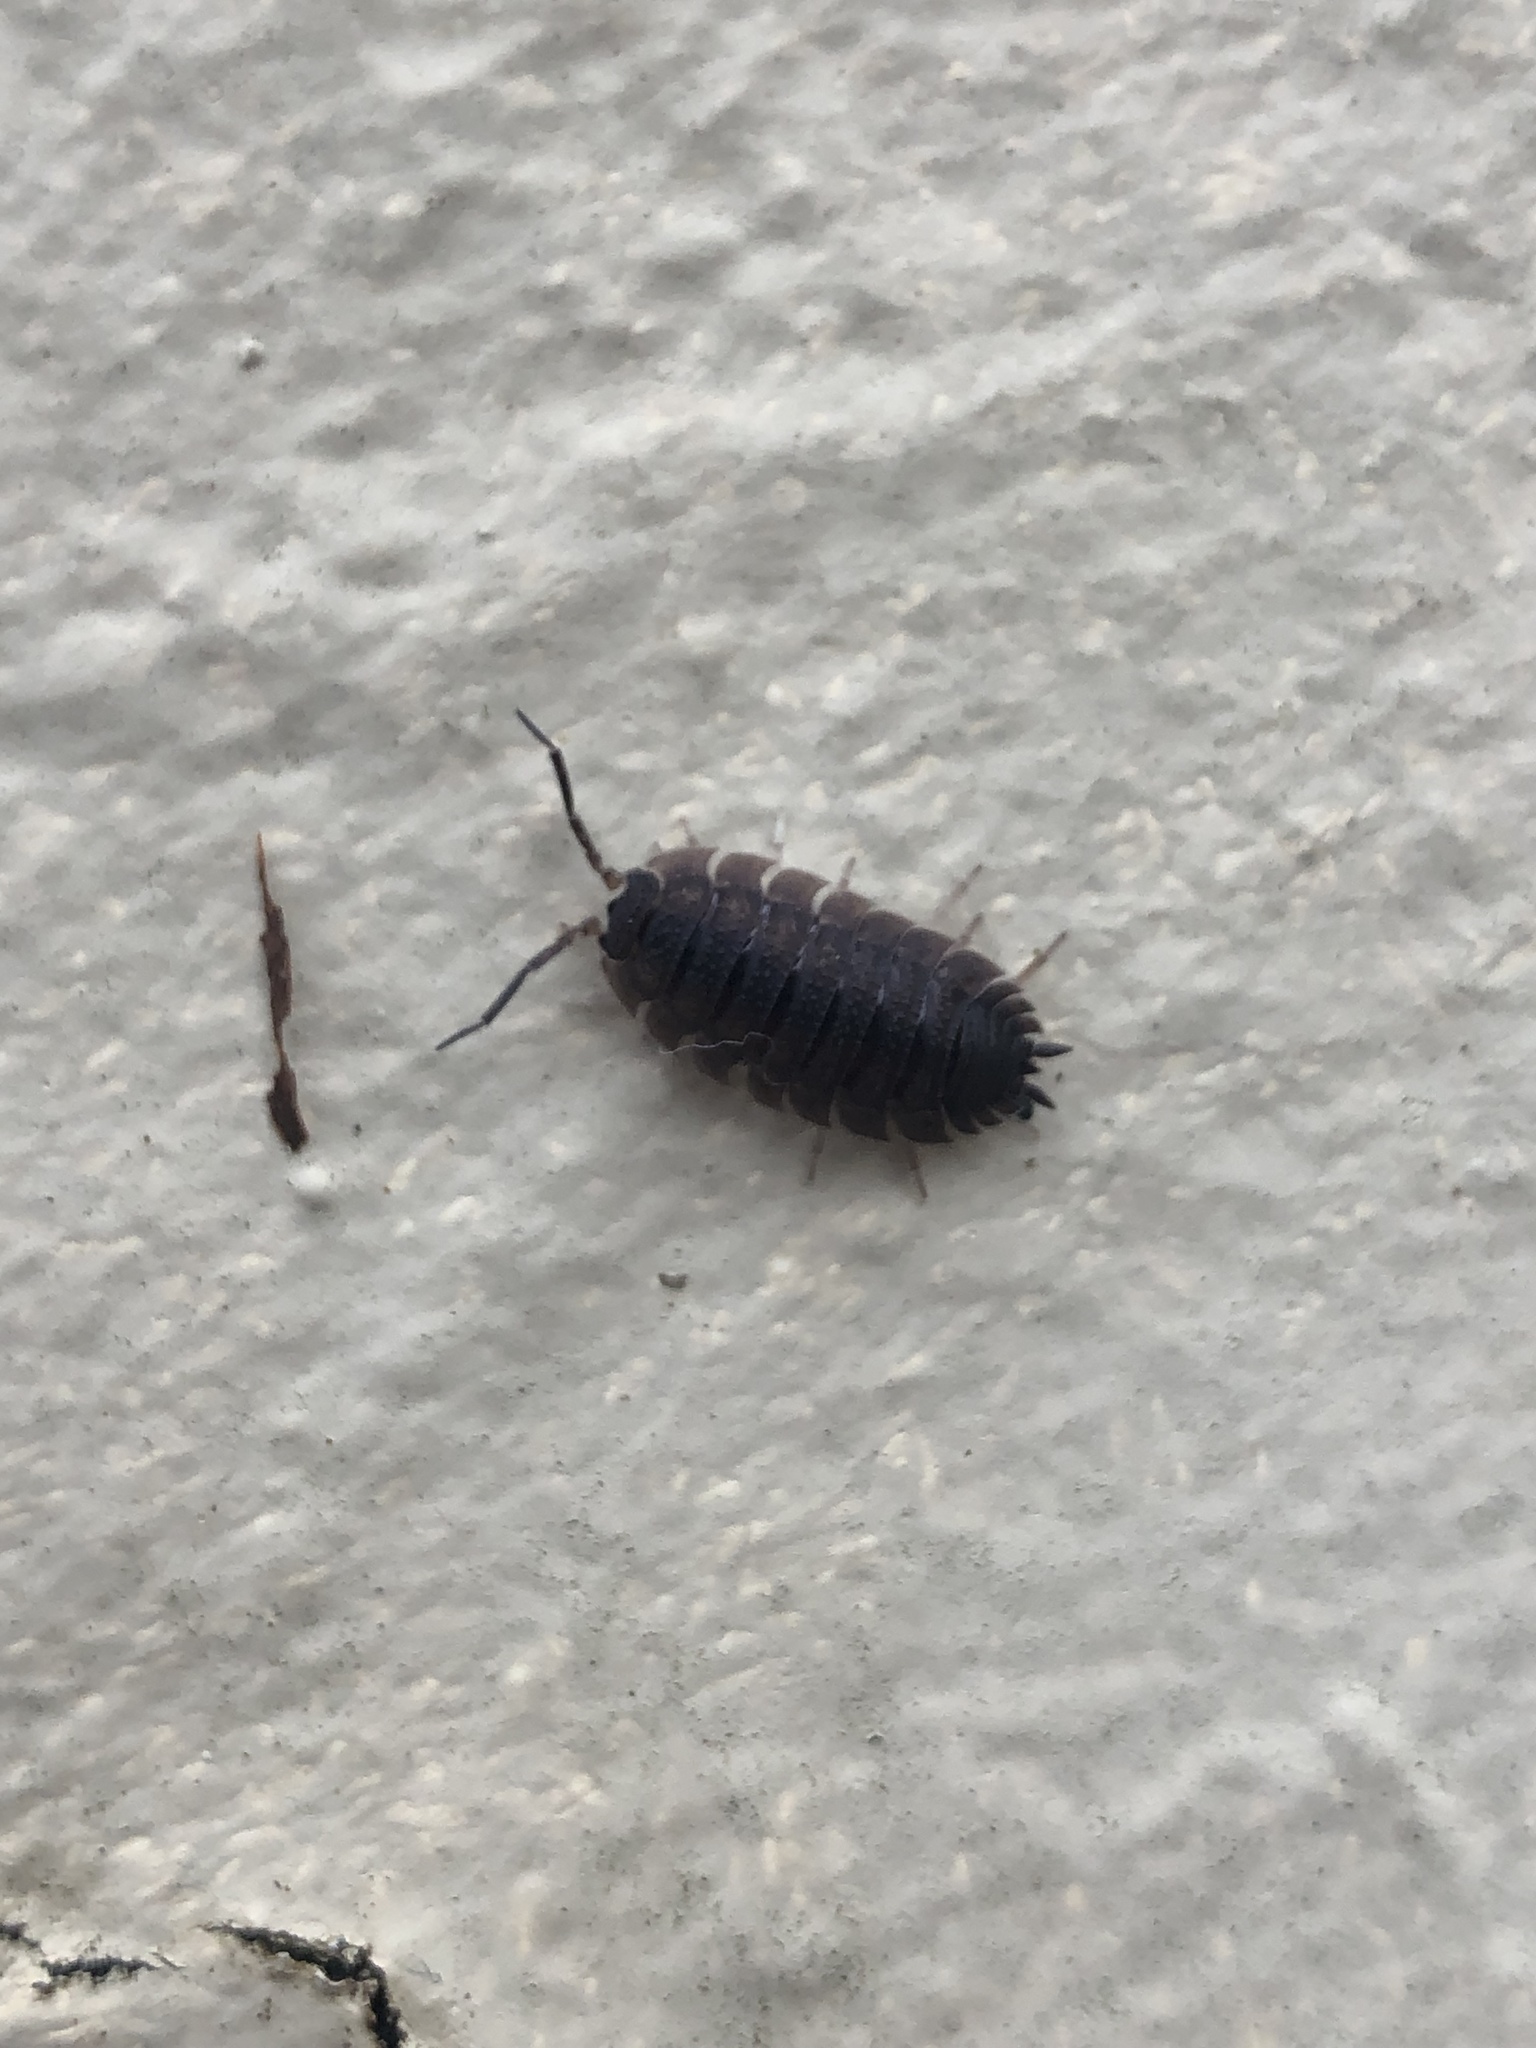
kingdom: Animalia
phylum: Arthropoda
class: Malacostraca
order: Isopoda
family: Porcellionidae
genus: Porcellio
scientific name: Porcellio scaber
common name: Common rough woodlouse
